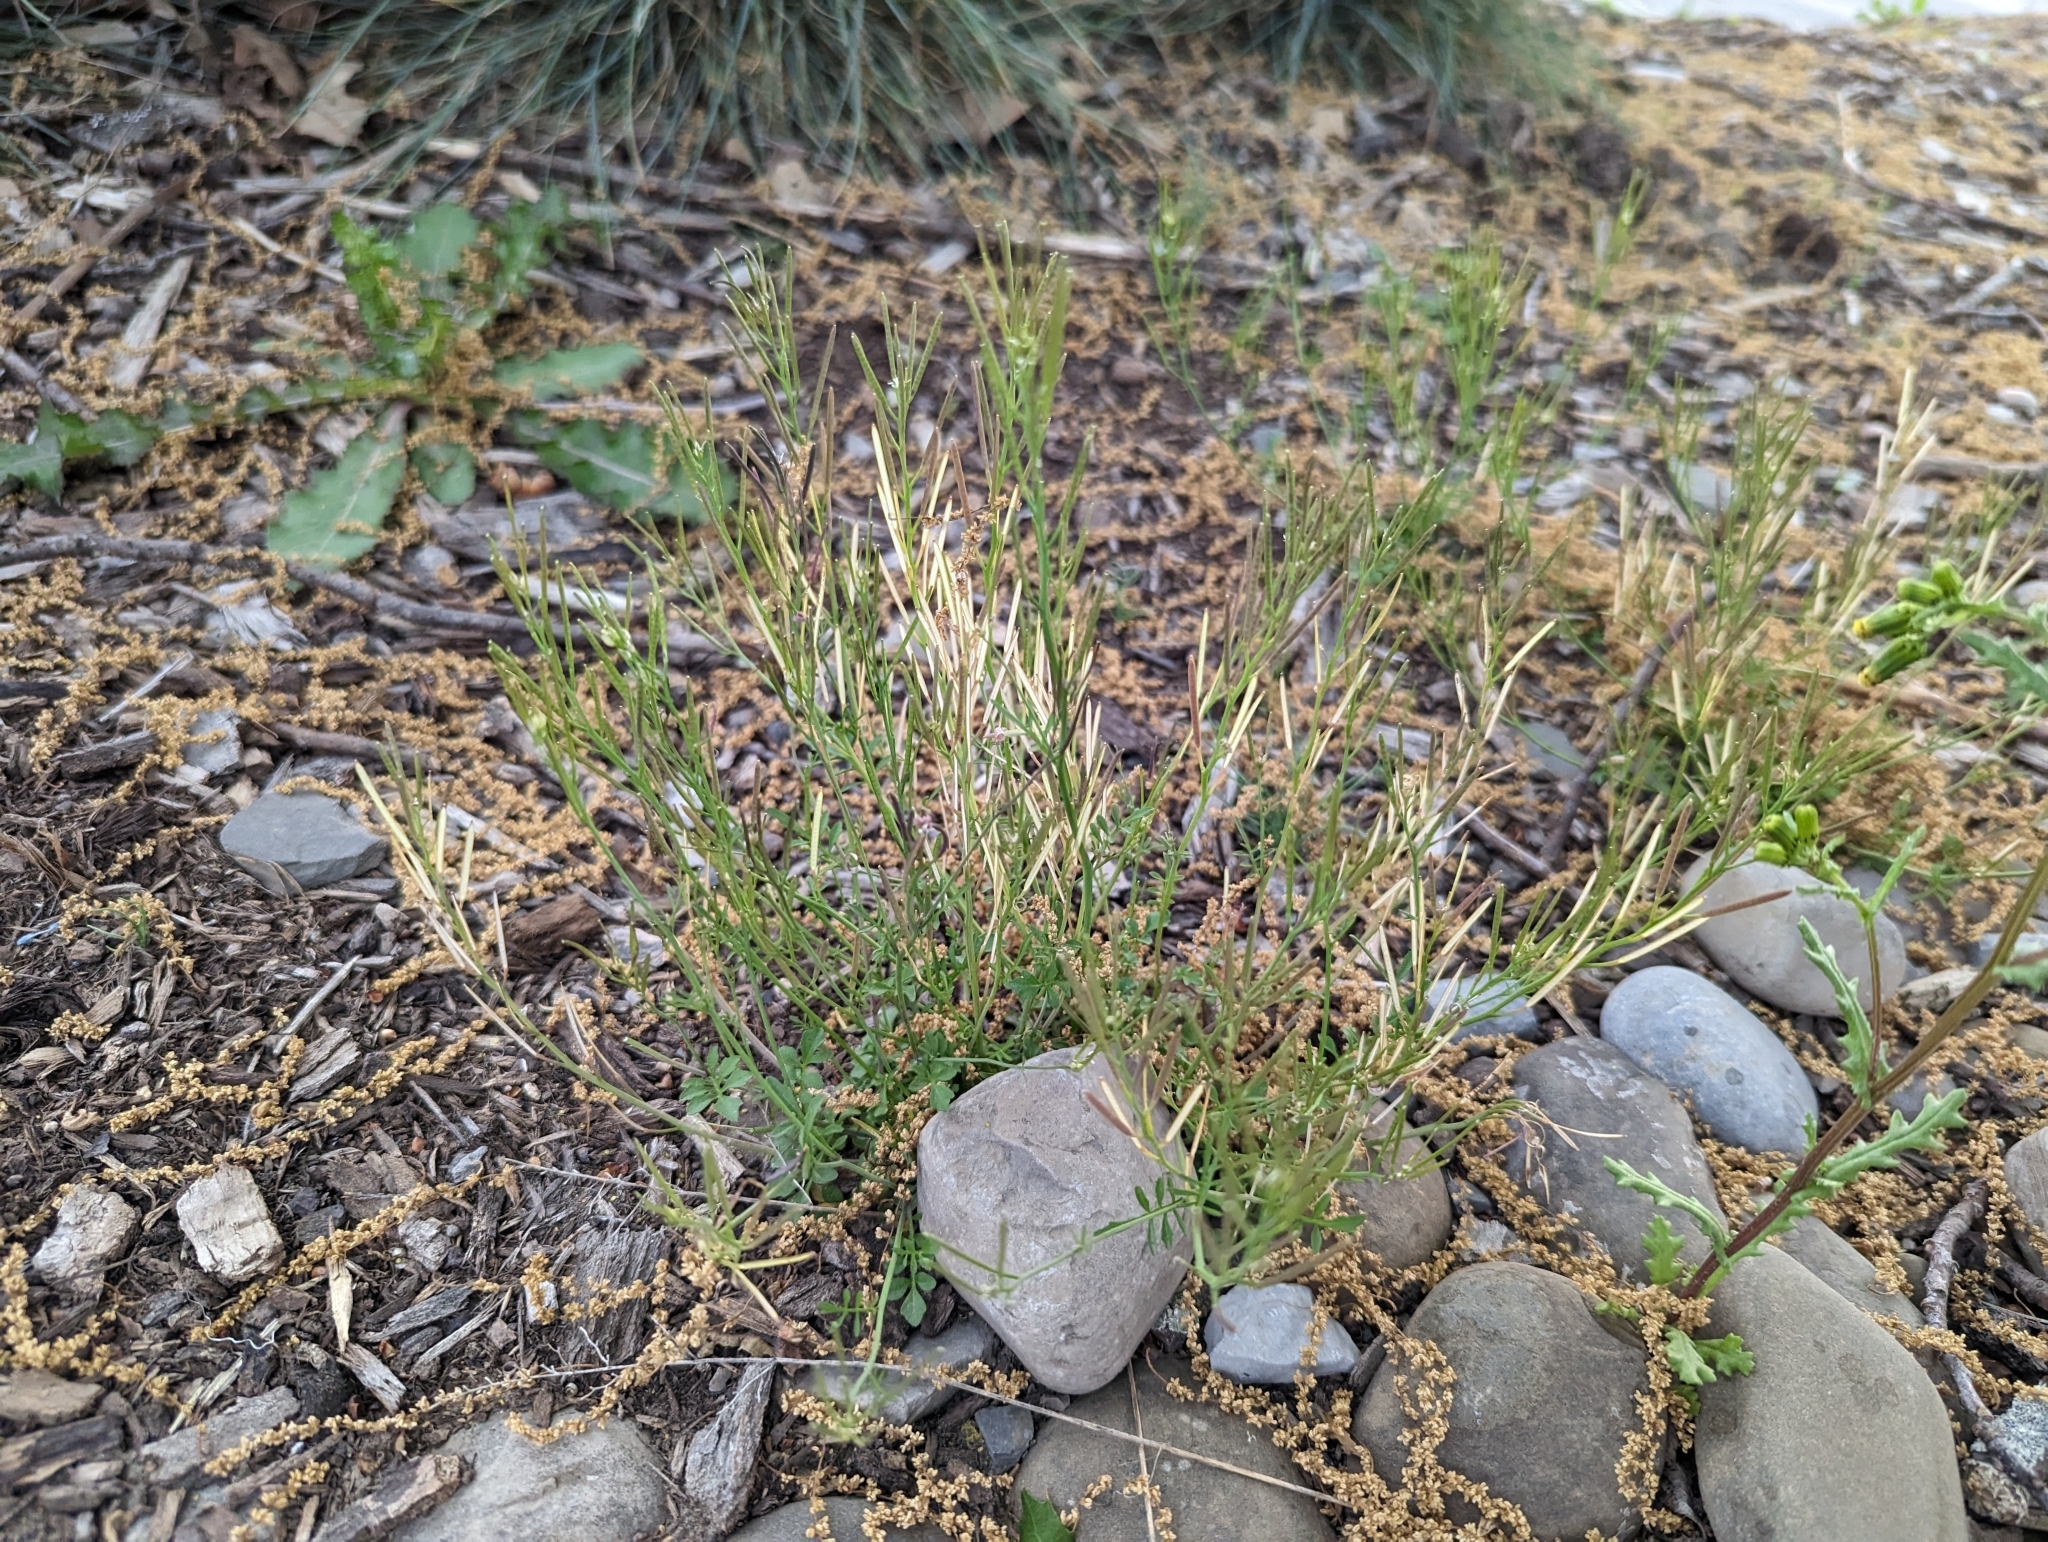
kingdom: Plantae
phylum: Tracheophyta
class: Magnoliopsida
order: Brassicales
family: Brassicaceae
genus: Cardamine
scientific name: Cardamine hirsuta
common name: Hairy bittercress
